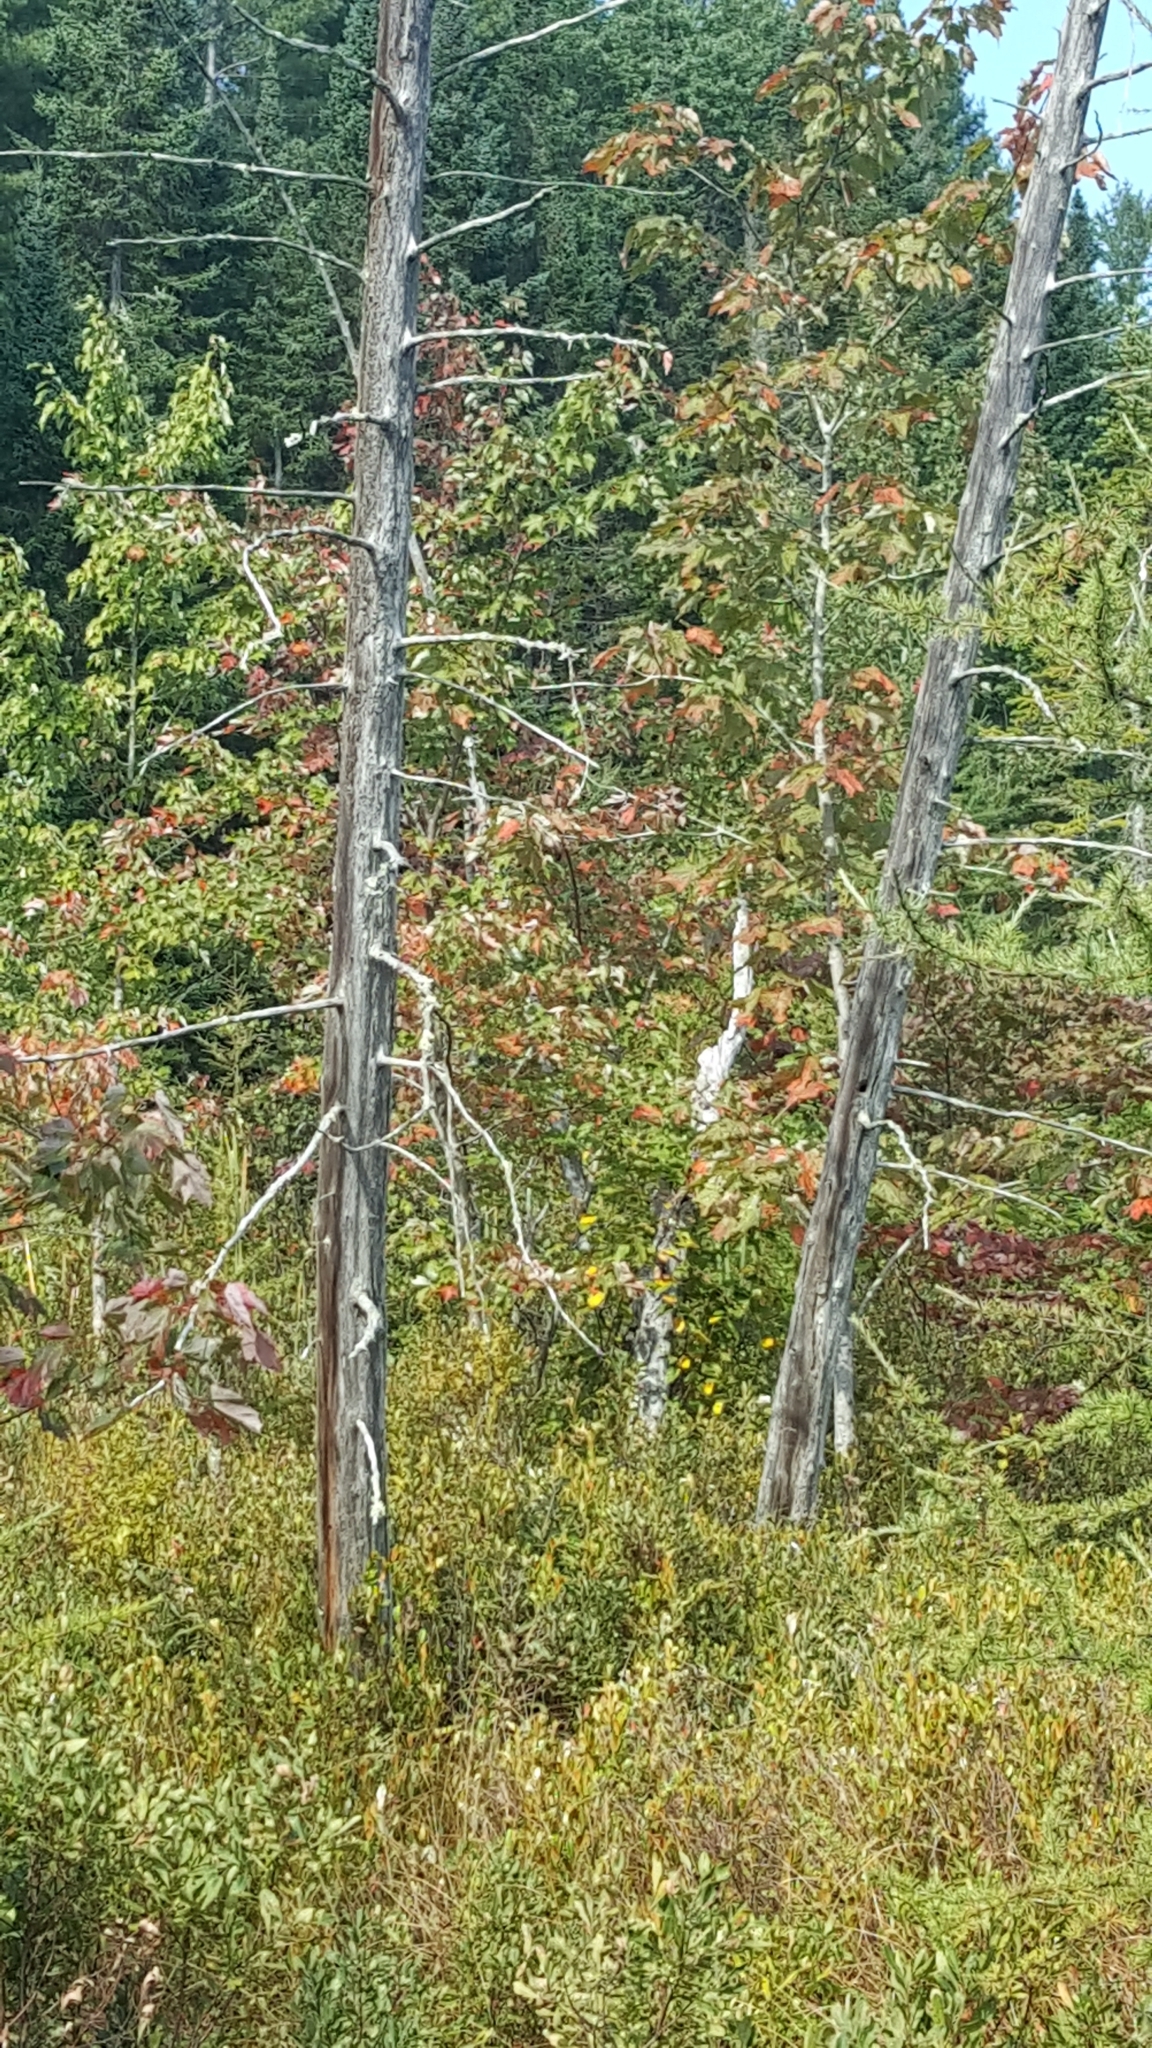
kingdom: Plantae
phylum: Tracheophyta
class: Magnoliopsida
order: Sapindales
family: Sapindaceae
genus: Acer
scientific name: Acer rubrum
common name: Red maple
